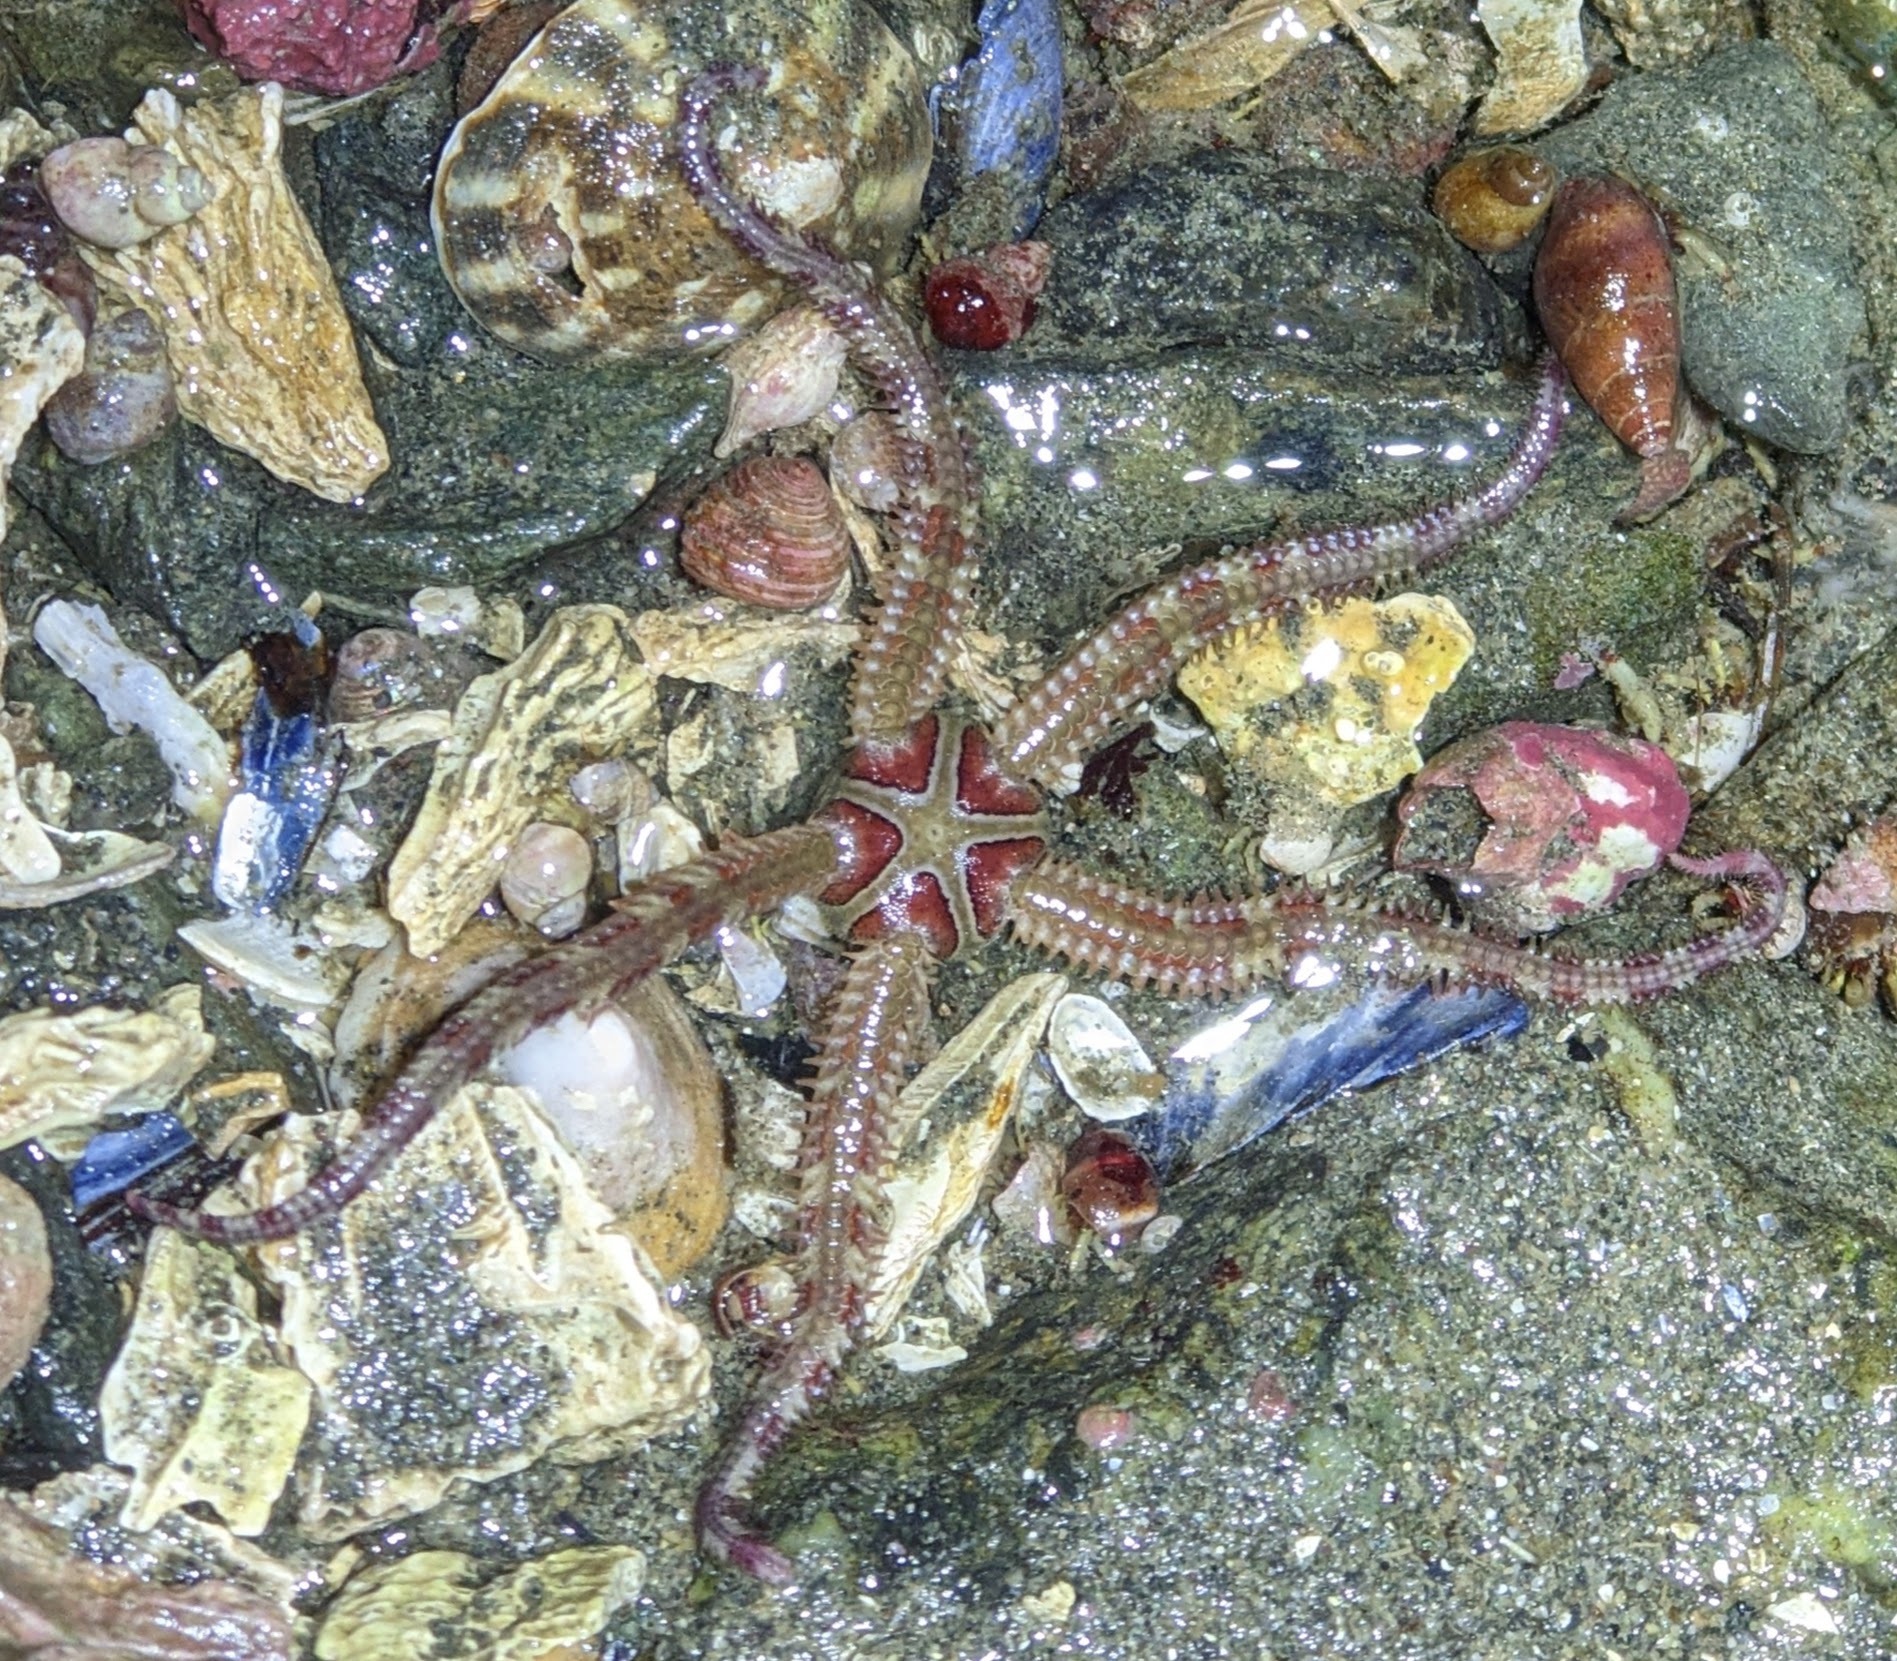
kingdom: Animalia
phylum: Echinodermata
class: Ophiuroidea
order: Amphilepidida
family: Ophiopholidae
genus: Ophiopholis
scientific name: Ophiopholis kennerlyi
